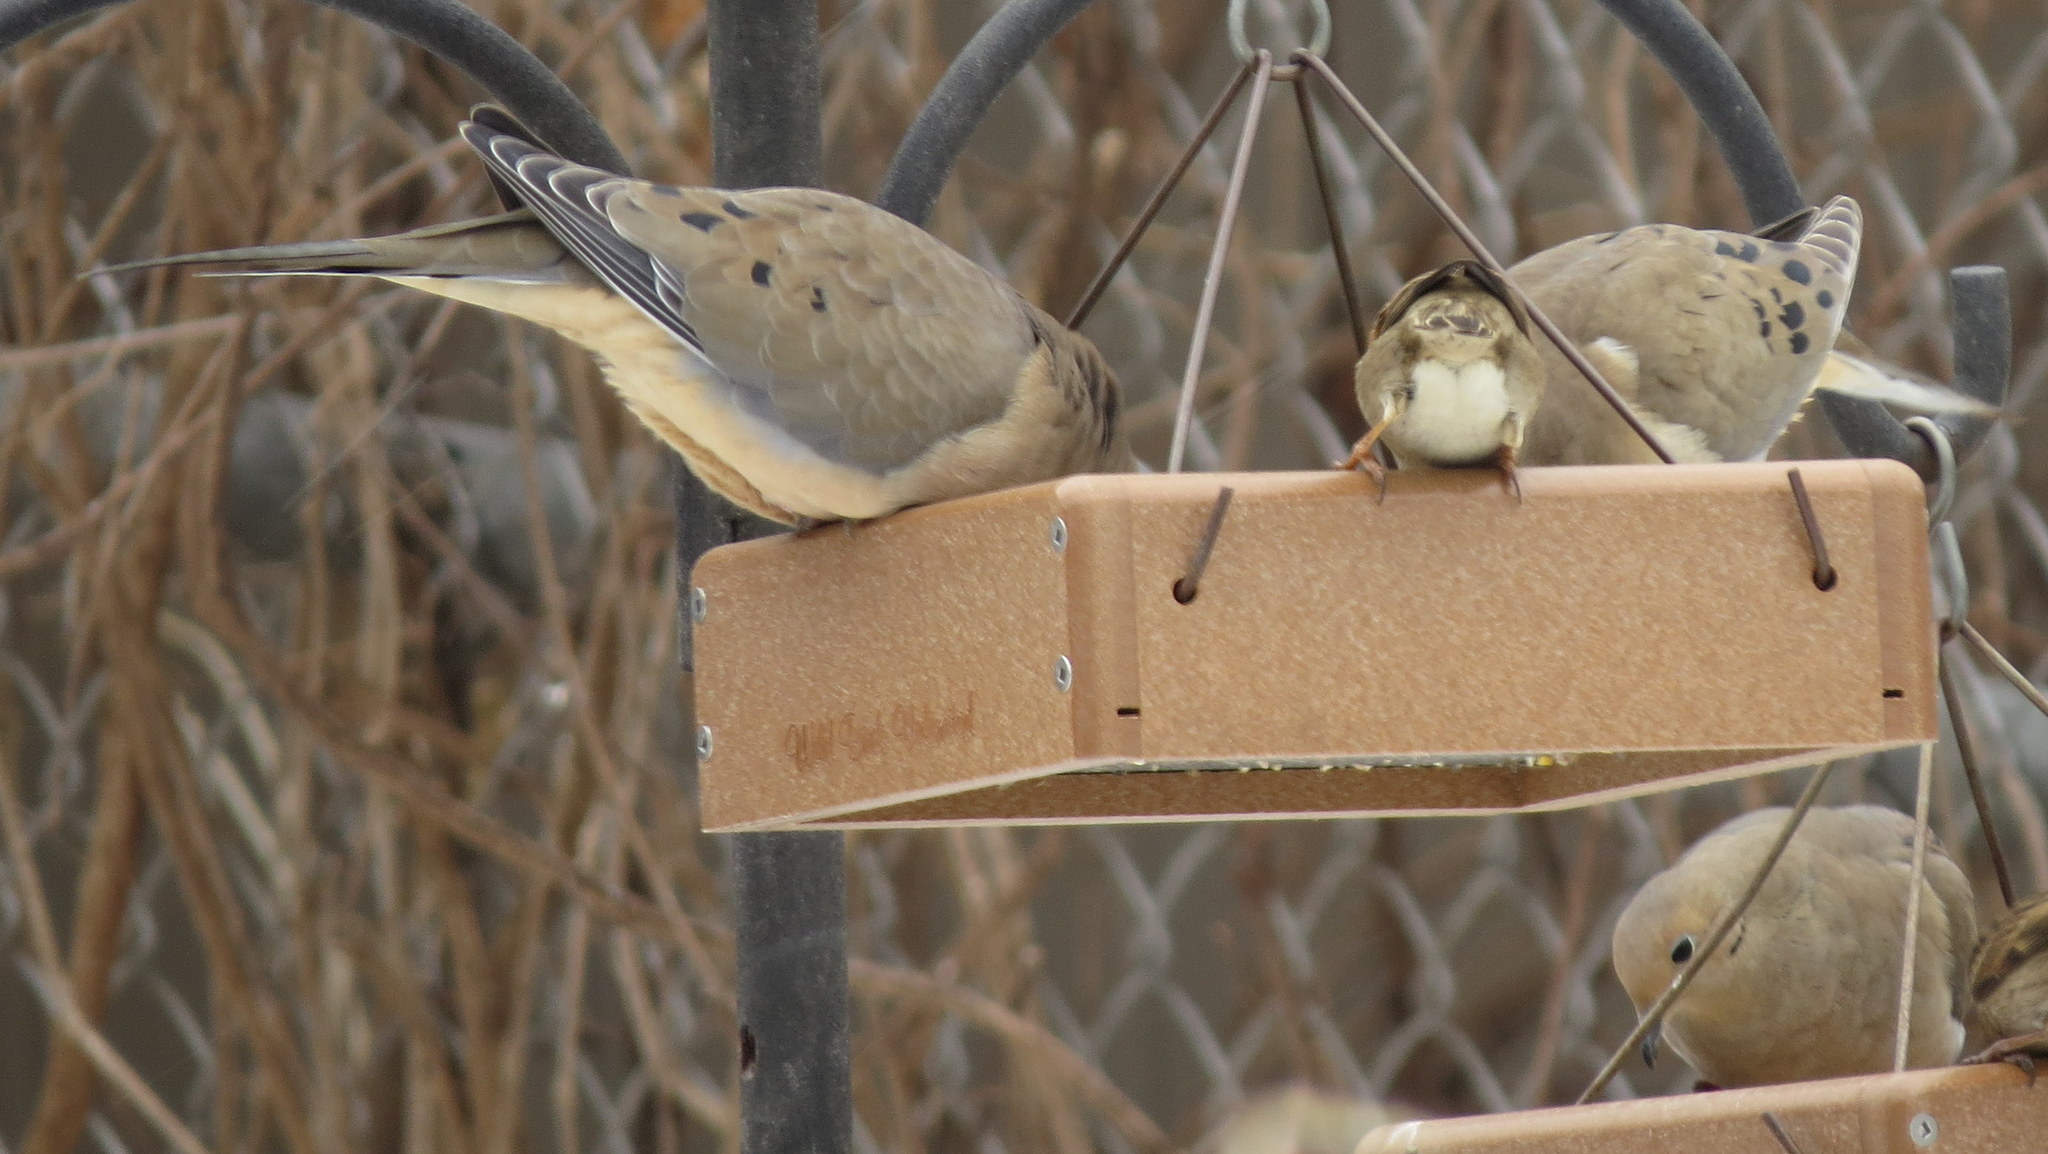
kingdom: Animalia
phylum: Chordata
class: Aves
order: Columbiformes
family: Columbidae
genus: Zenaida
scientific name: Zenaida macroura
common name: Mourning dove
